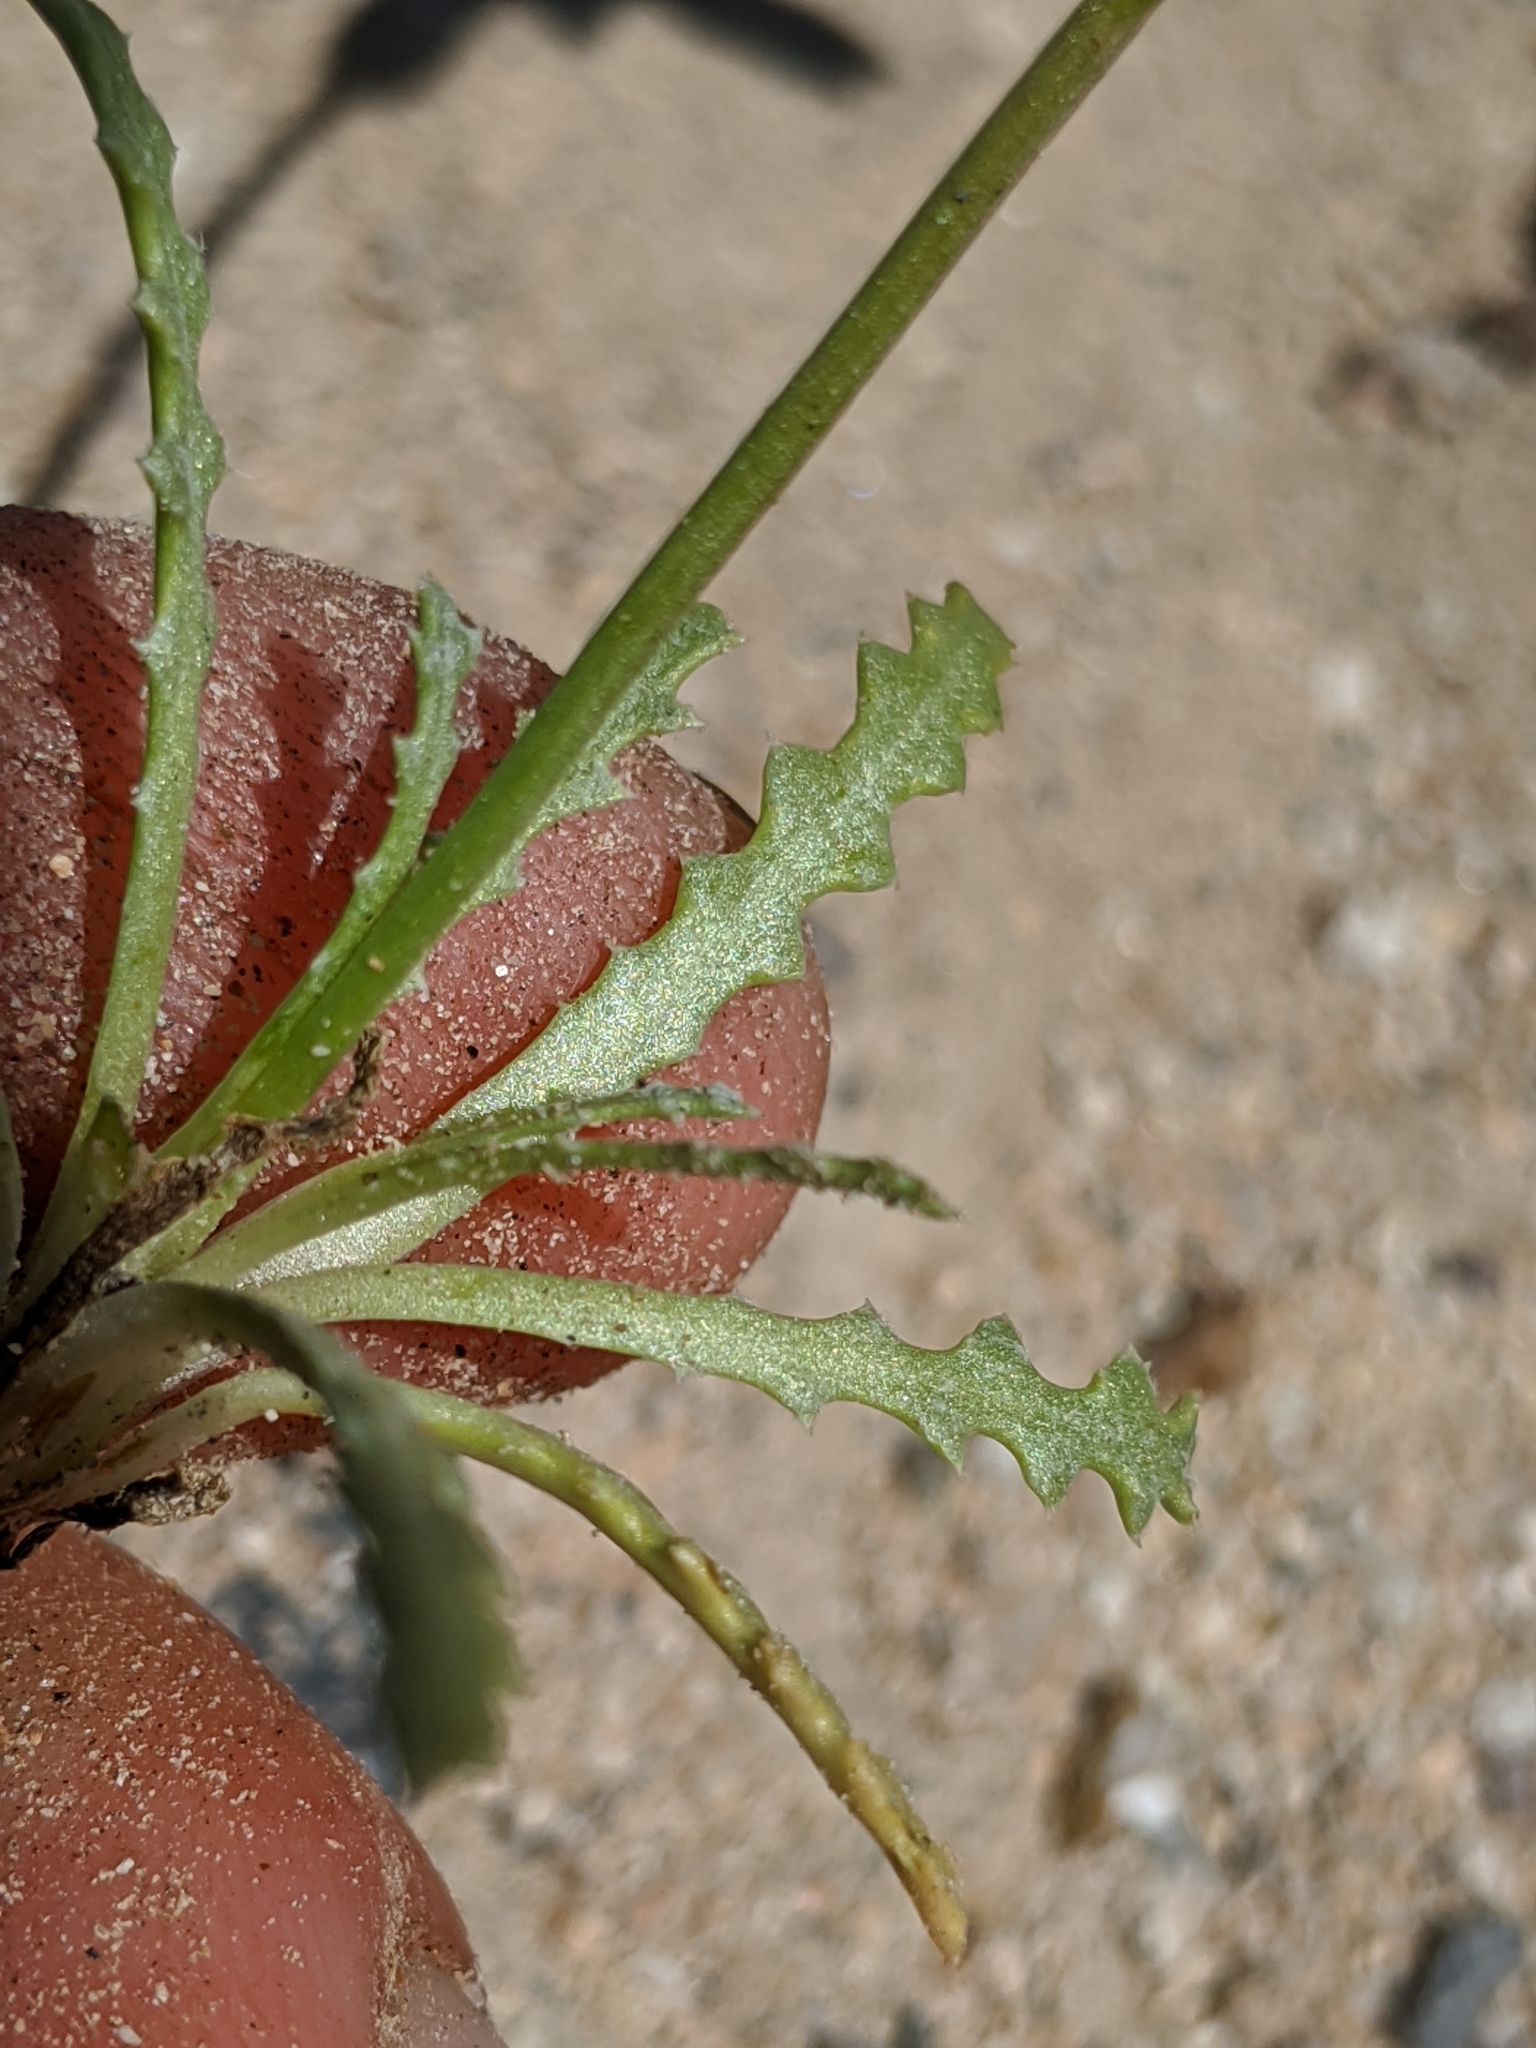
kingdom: Plantae
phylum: Tracheophyta
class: Magnoliopsida
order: Asterales
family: Asteraceae
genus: Anisocoma
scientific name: Anisocoma acaulis
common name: Scalebud
